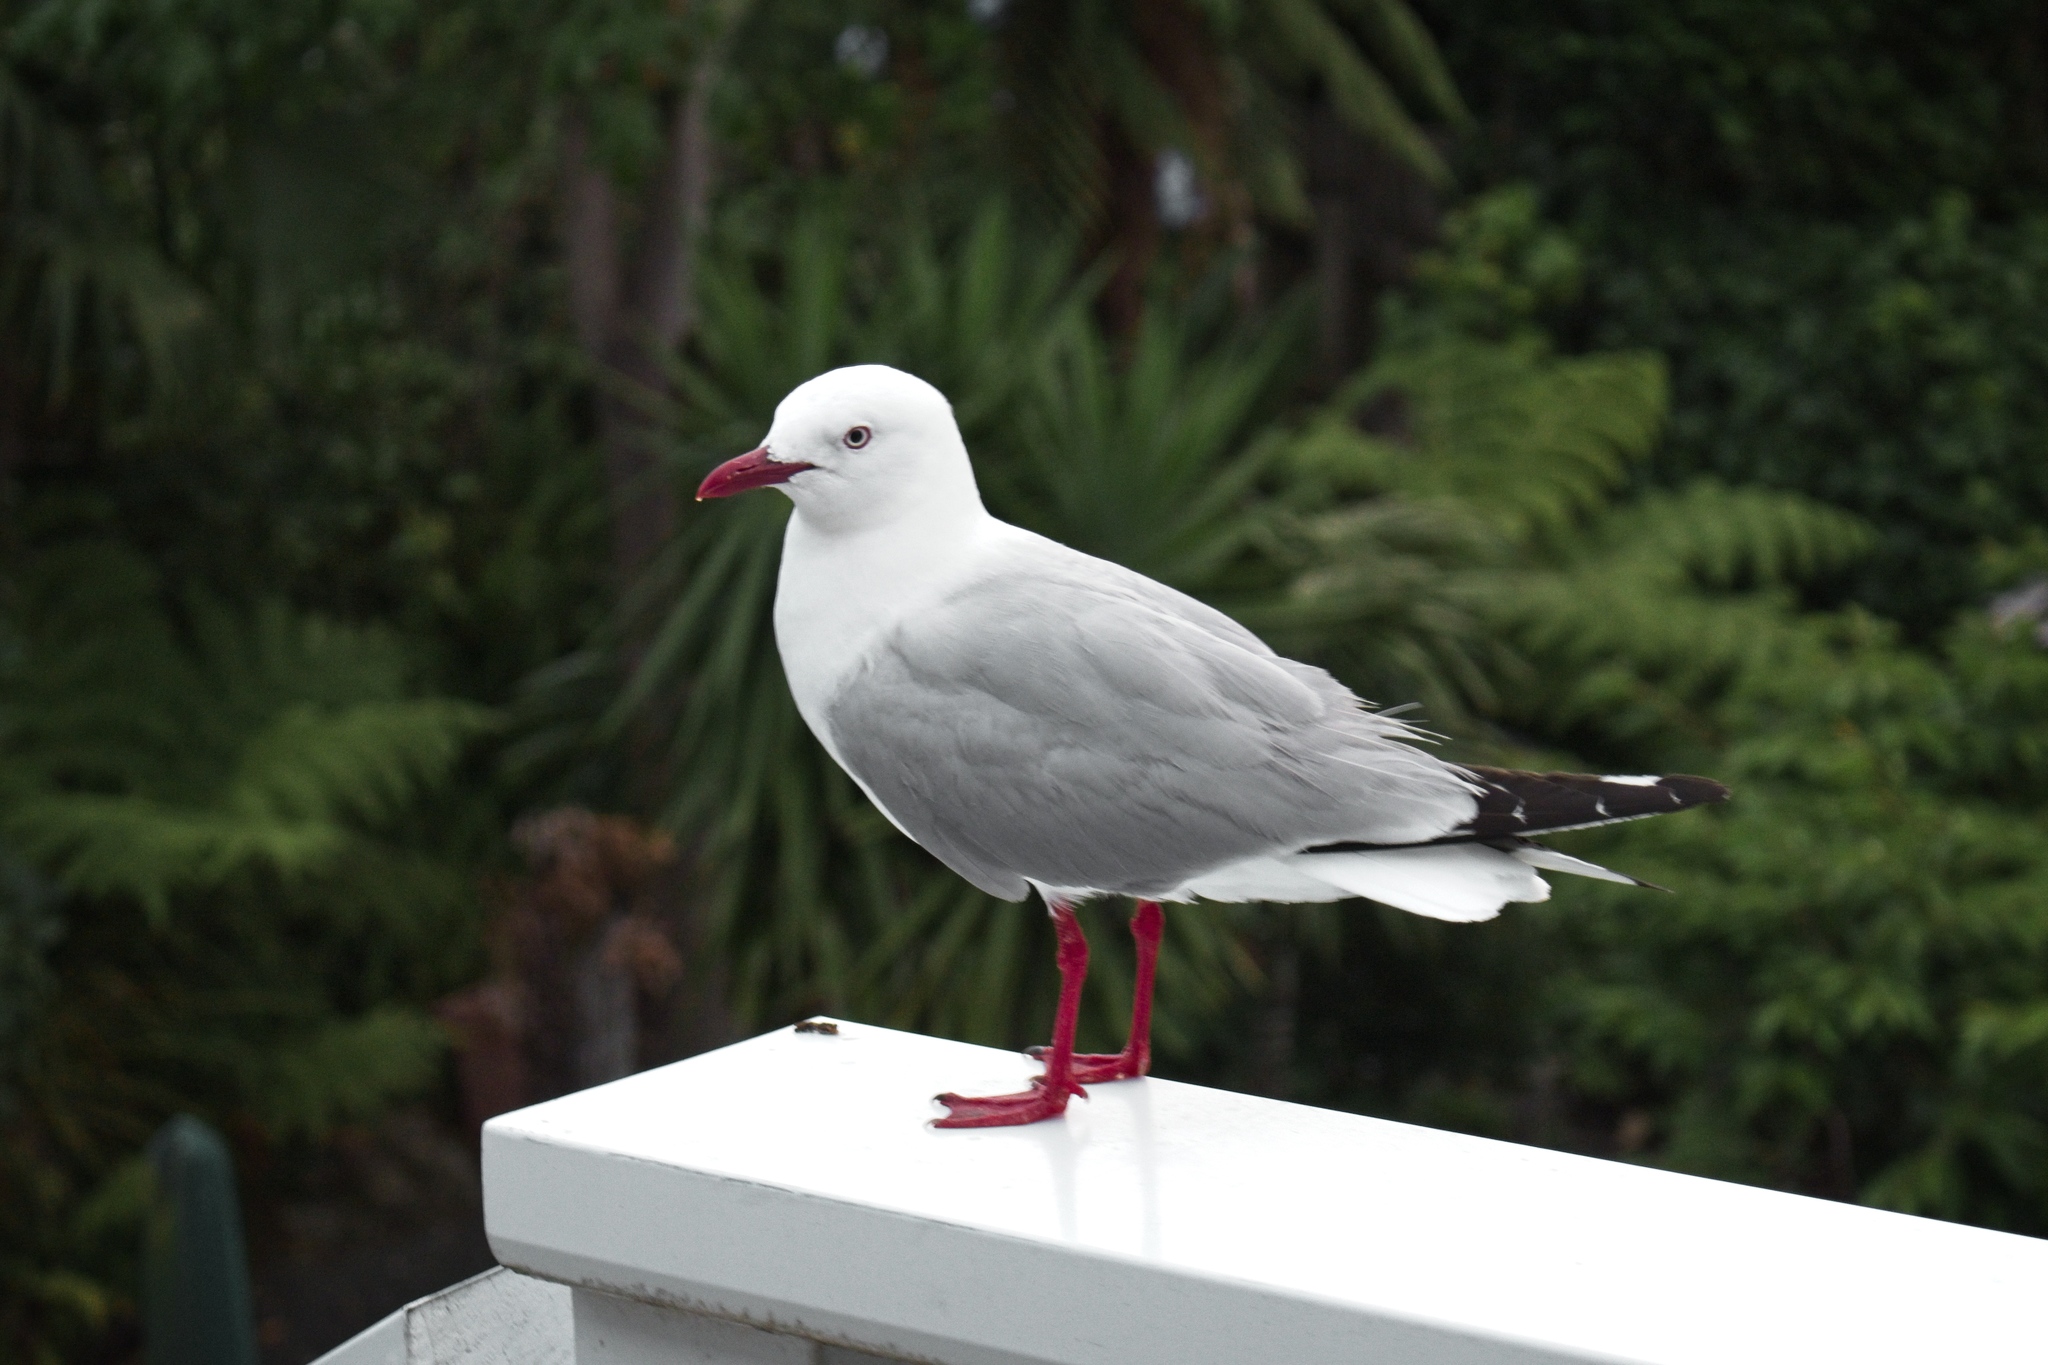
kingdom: Animalia
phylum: Chordata
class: Aves
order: Charadriiformes
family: Laridae
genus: Chroicocephalus
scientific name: Chroicocephalus novaehollandiae
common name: Silver gull
